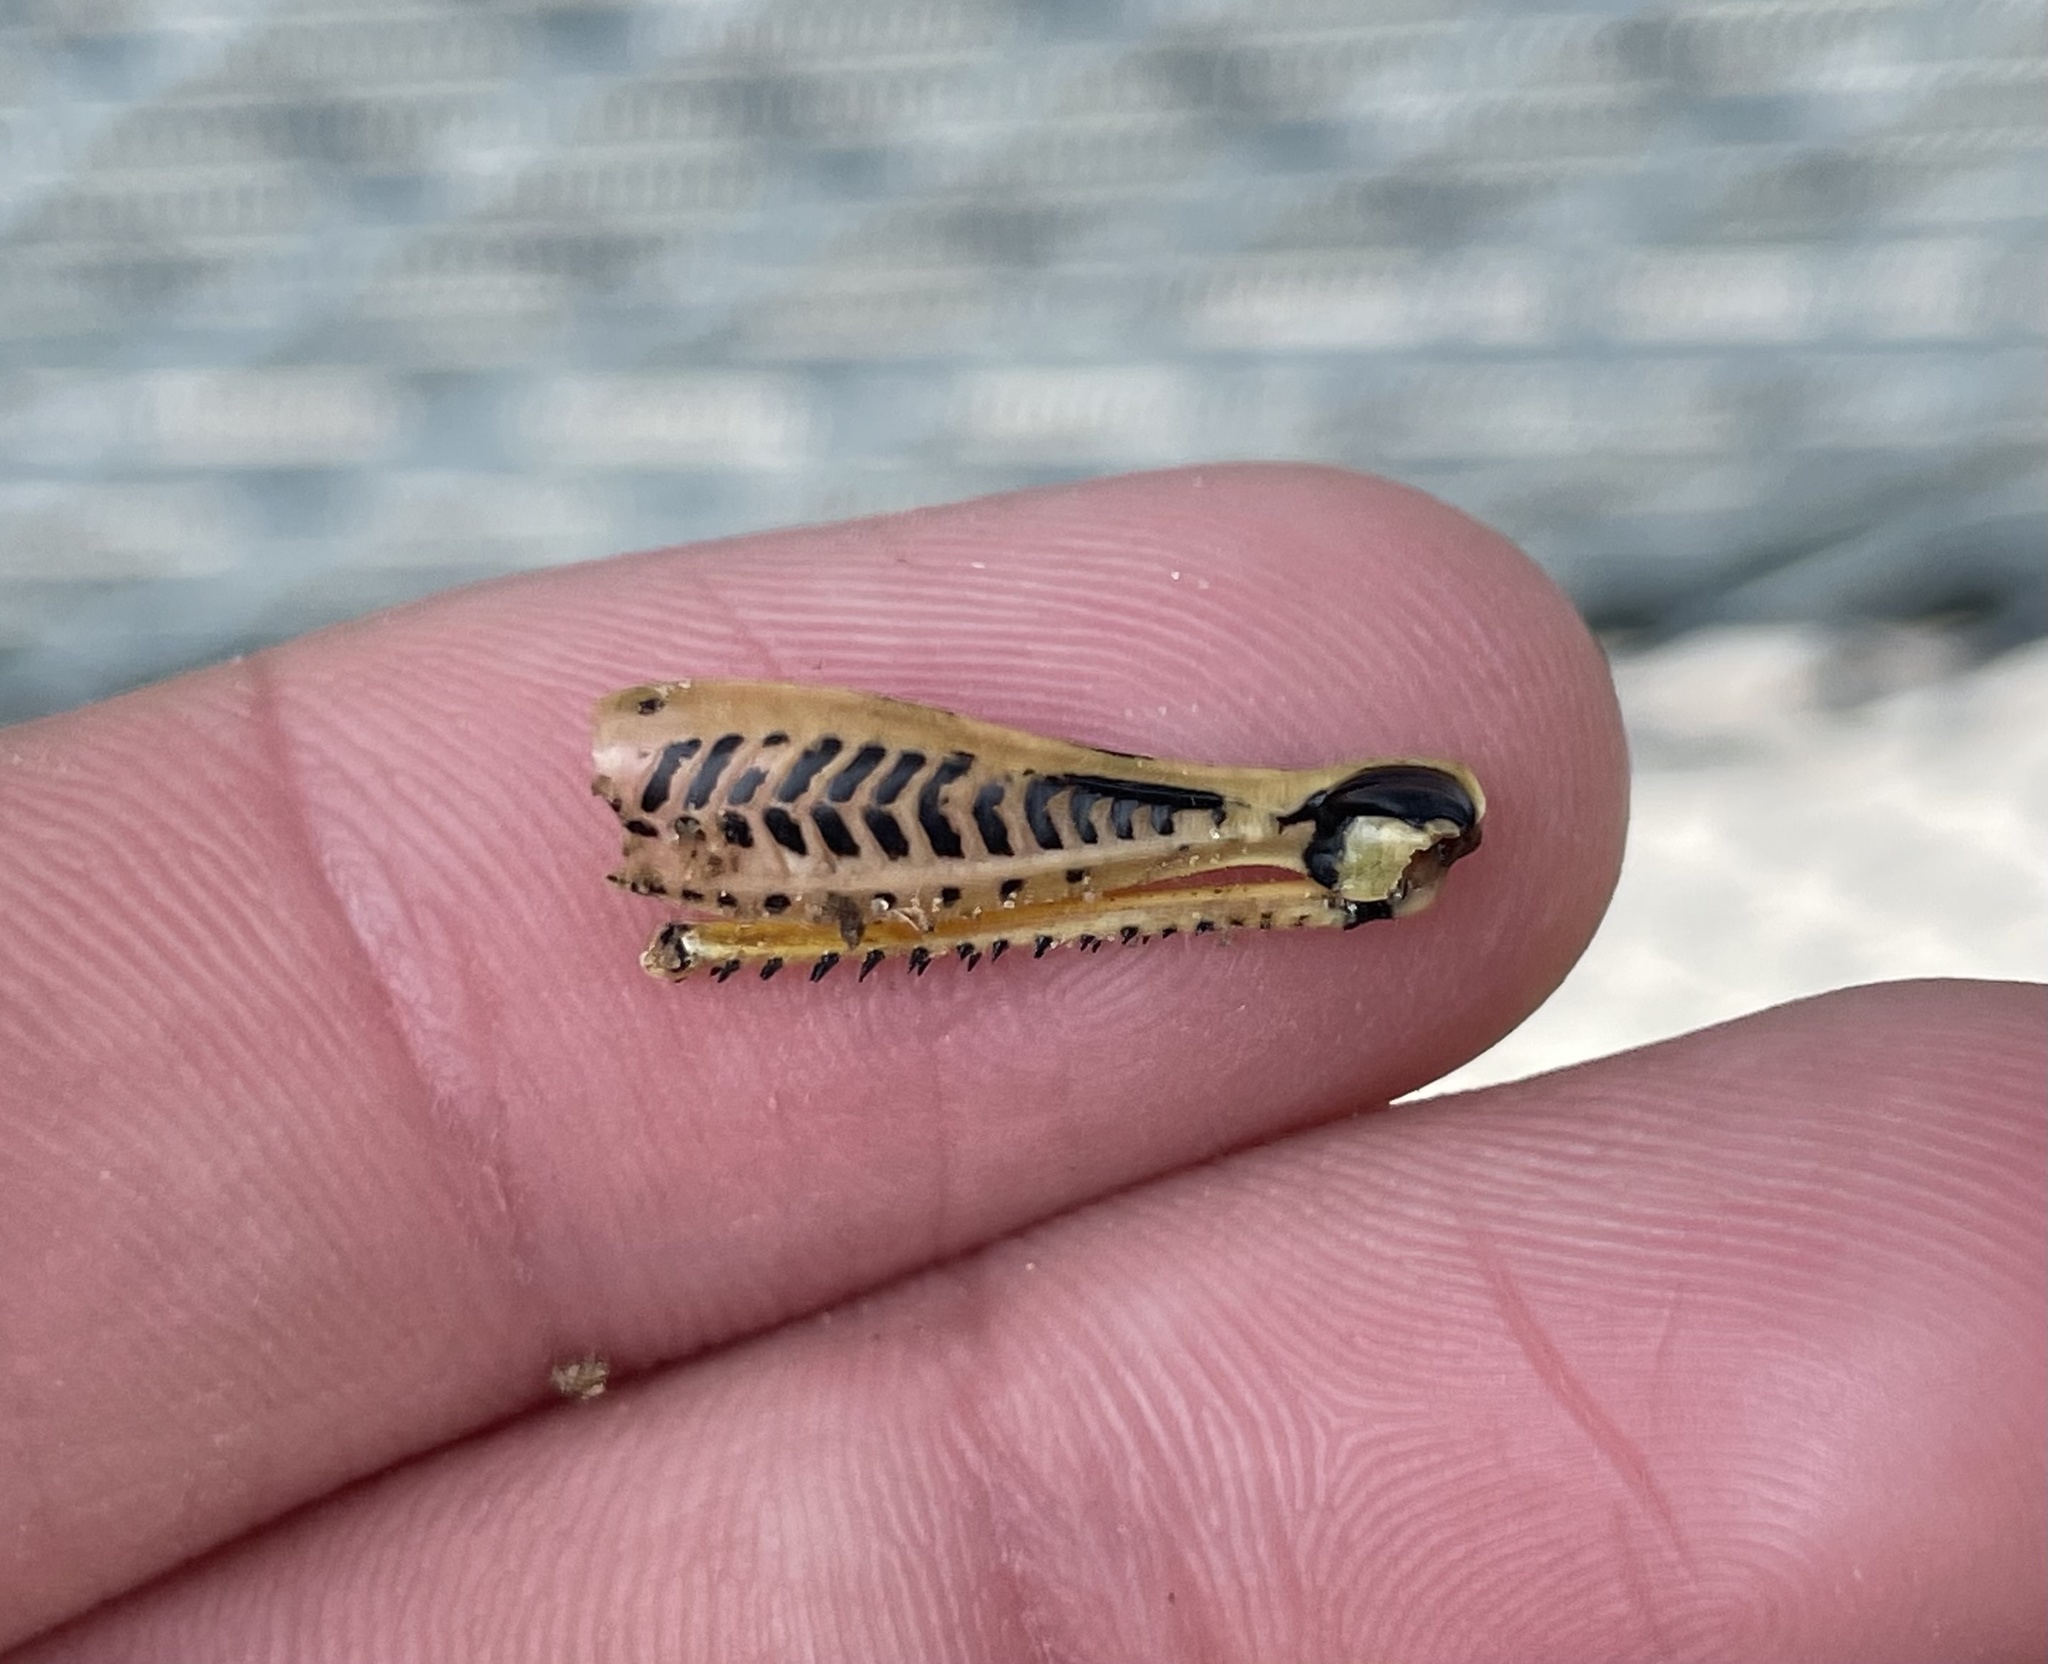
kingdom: Animalia
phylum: Arthropoda
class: Insecta
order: Orthoptera
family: Acrididae
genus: Melanoplus
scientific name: Melanoplus differentialis
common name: Differential grasshopper
